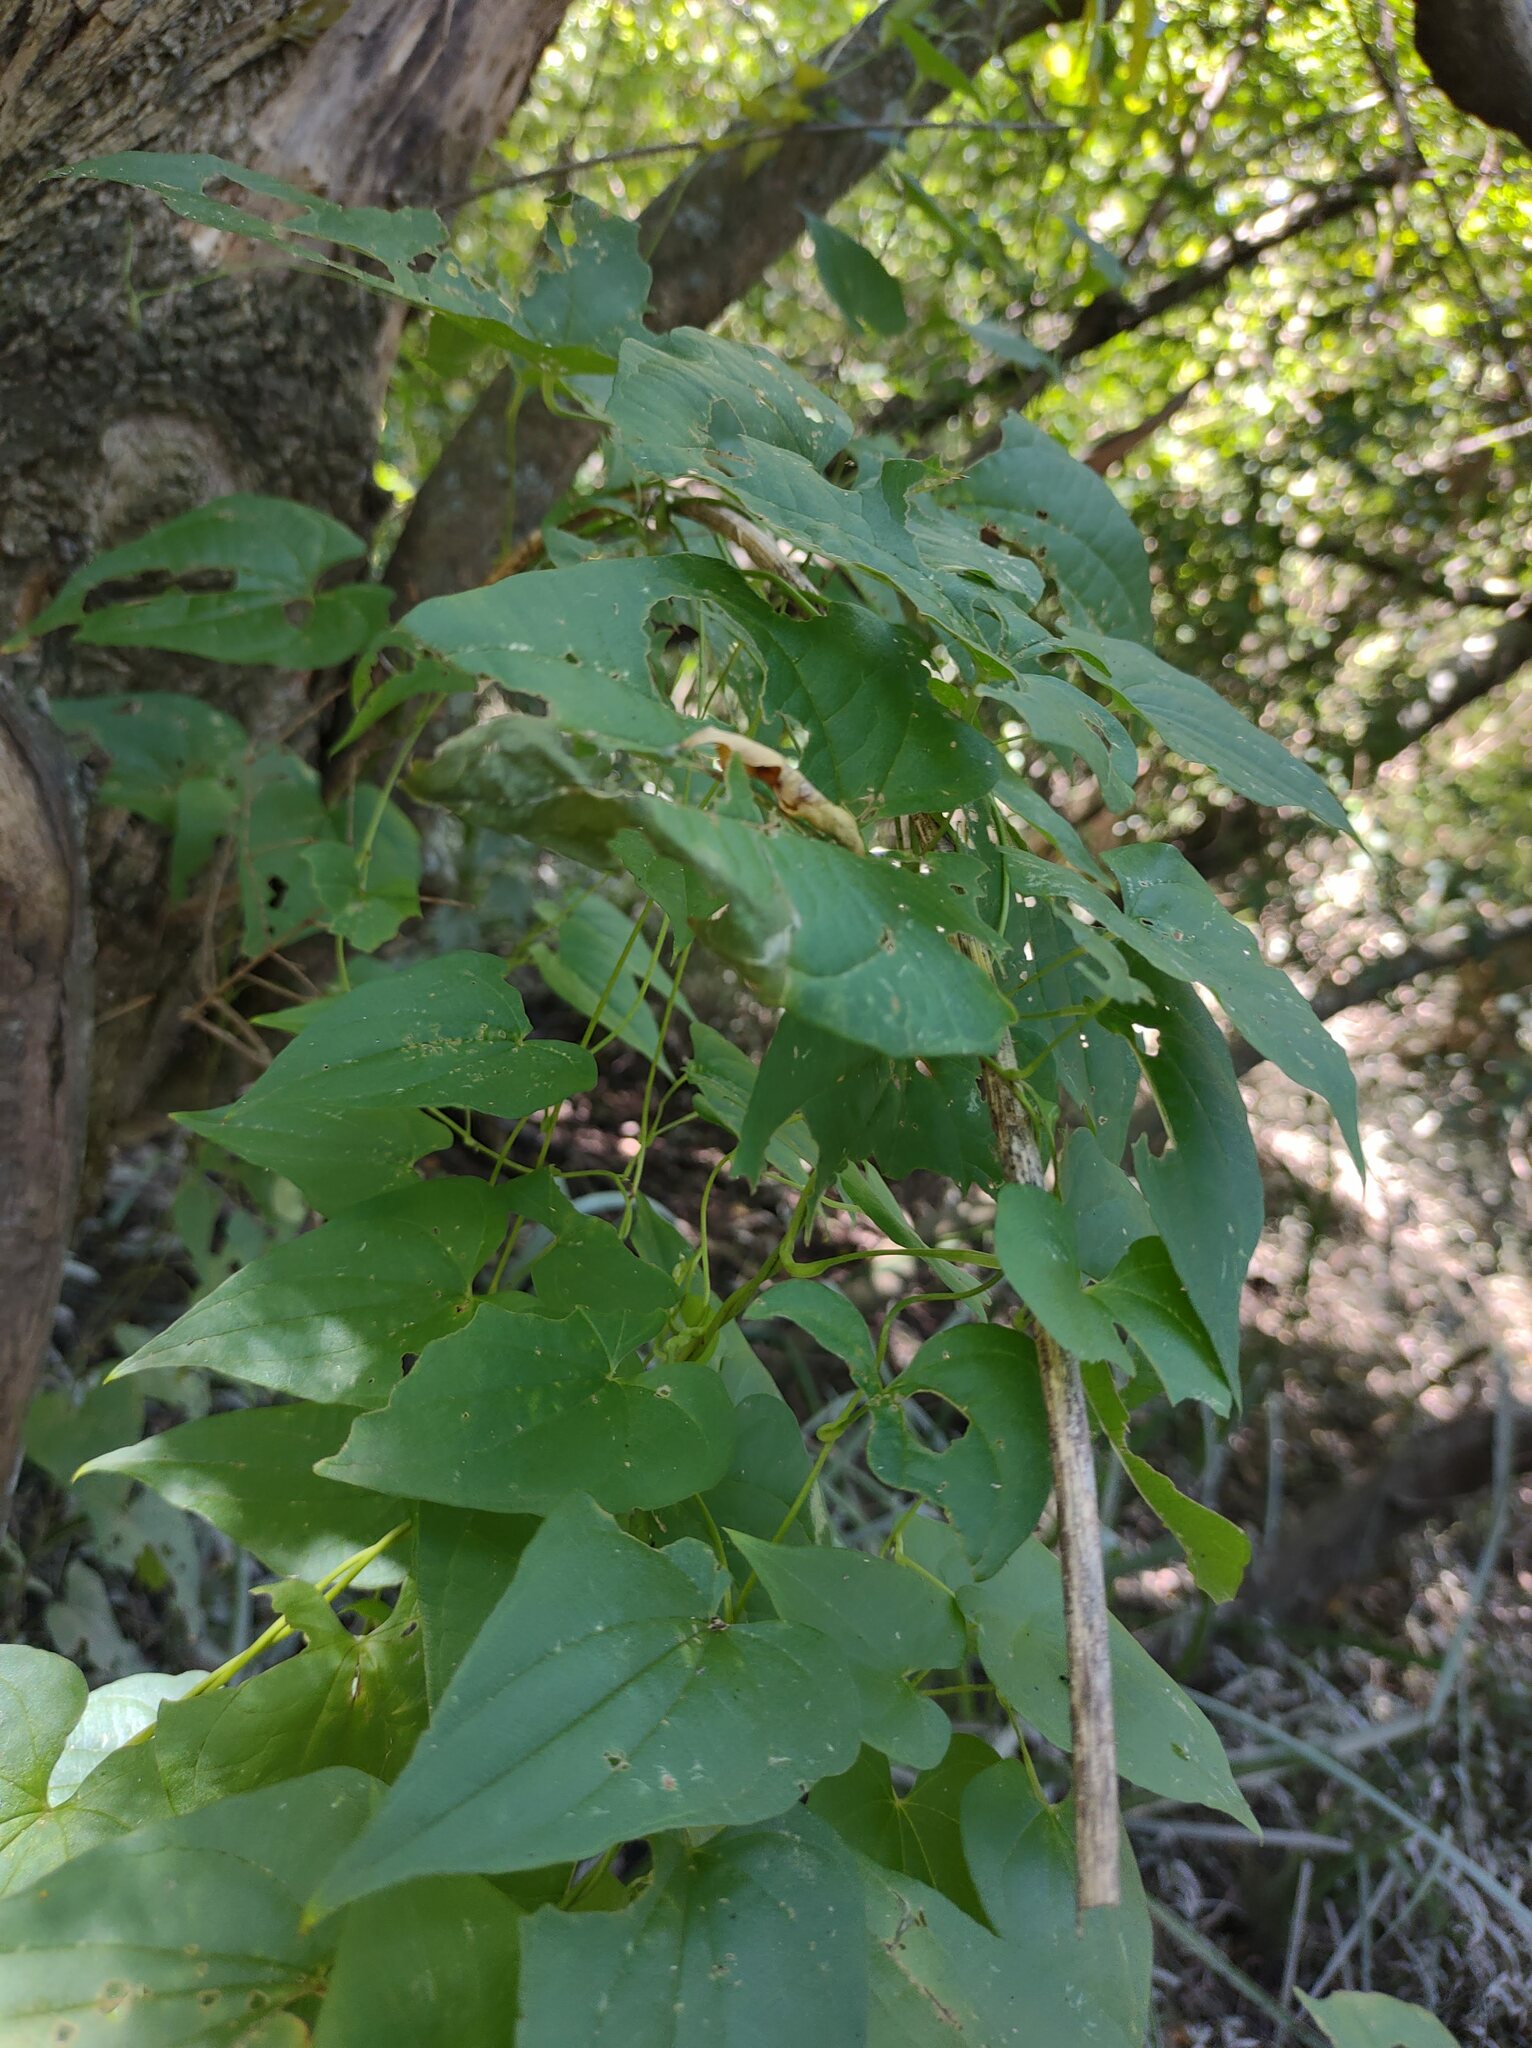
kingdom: Plantae
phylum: Tracheophyta
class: Liliopsida
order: Dioscoreales
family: Dioscoreaceae
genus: Dioscorea
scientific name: Dioscorea sinuata
